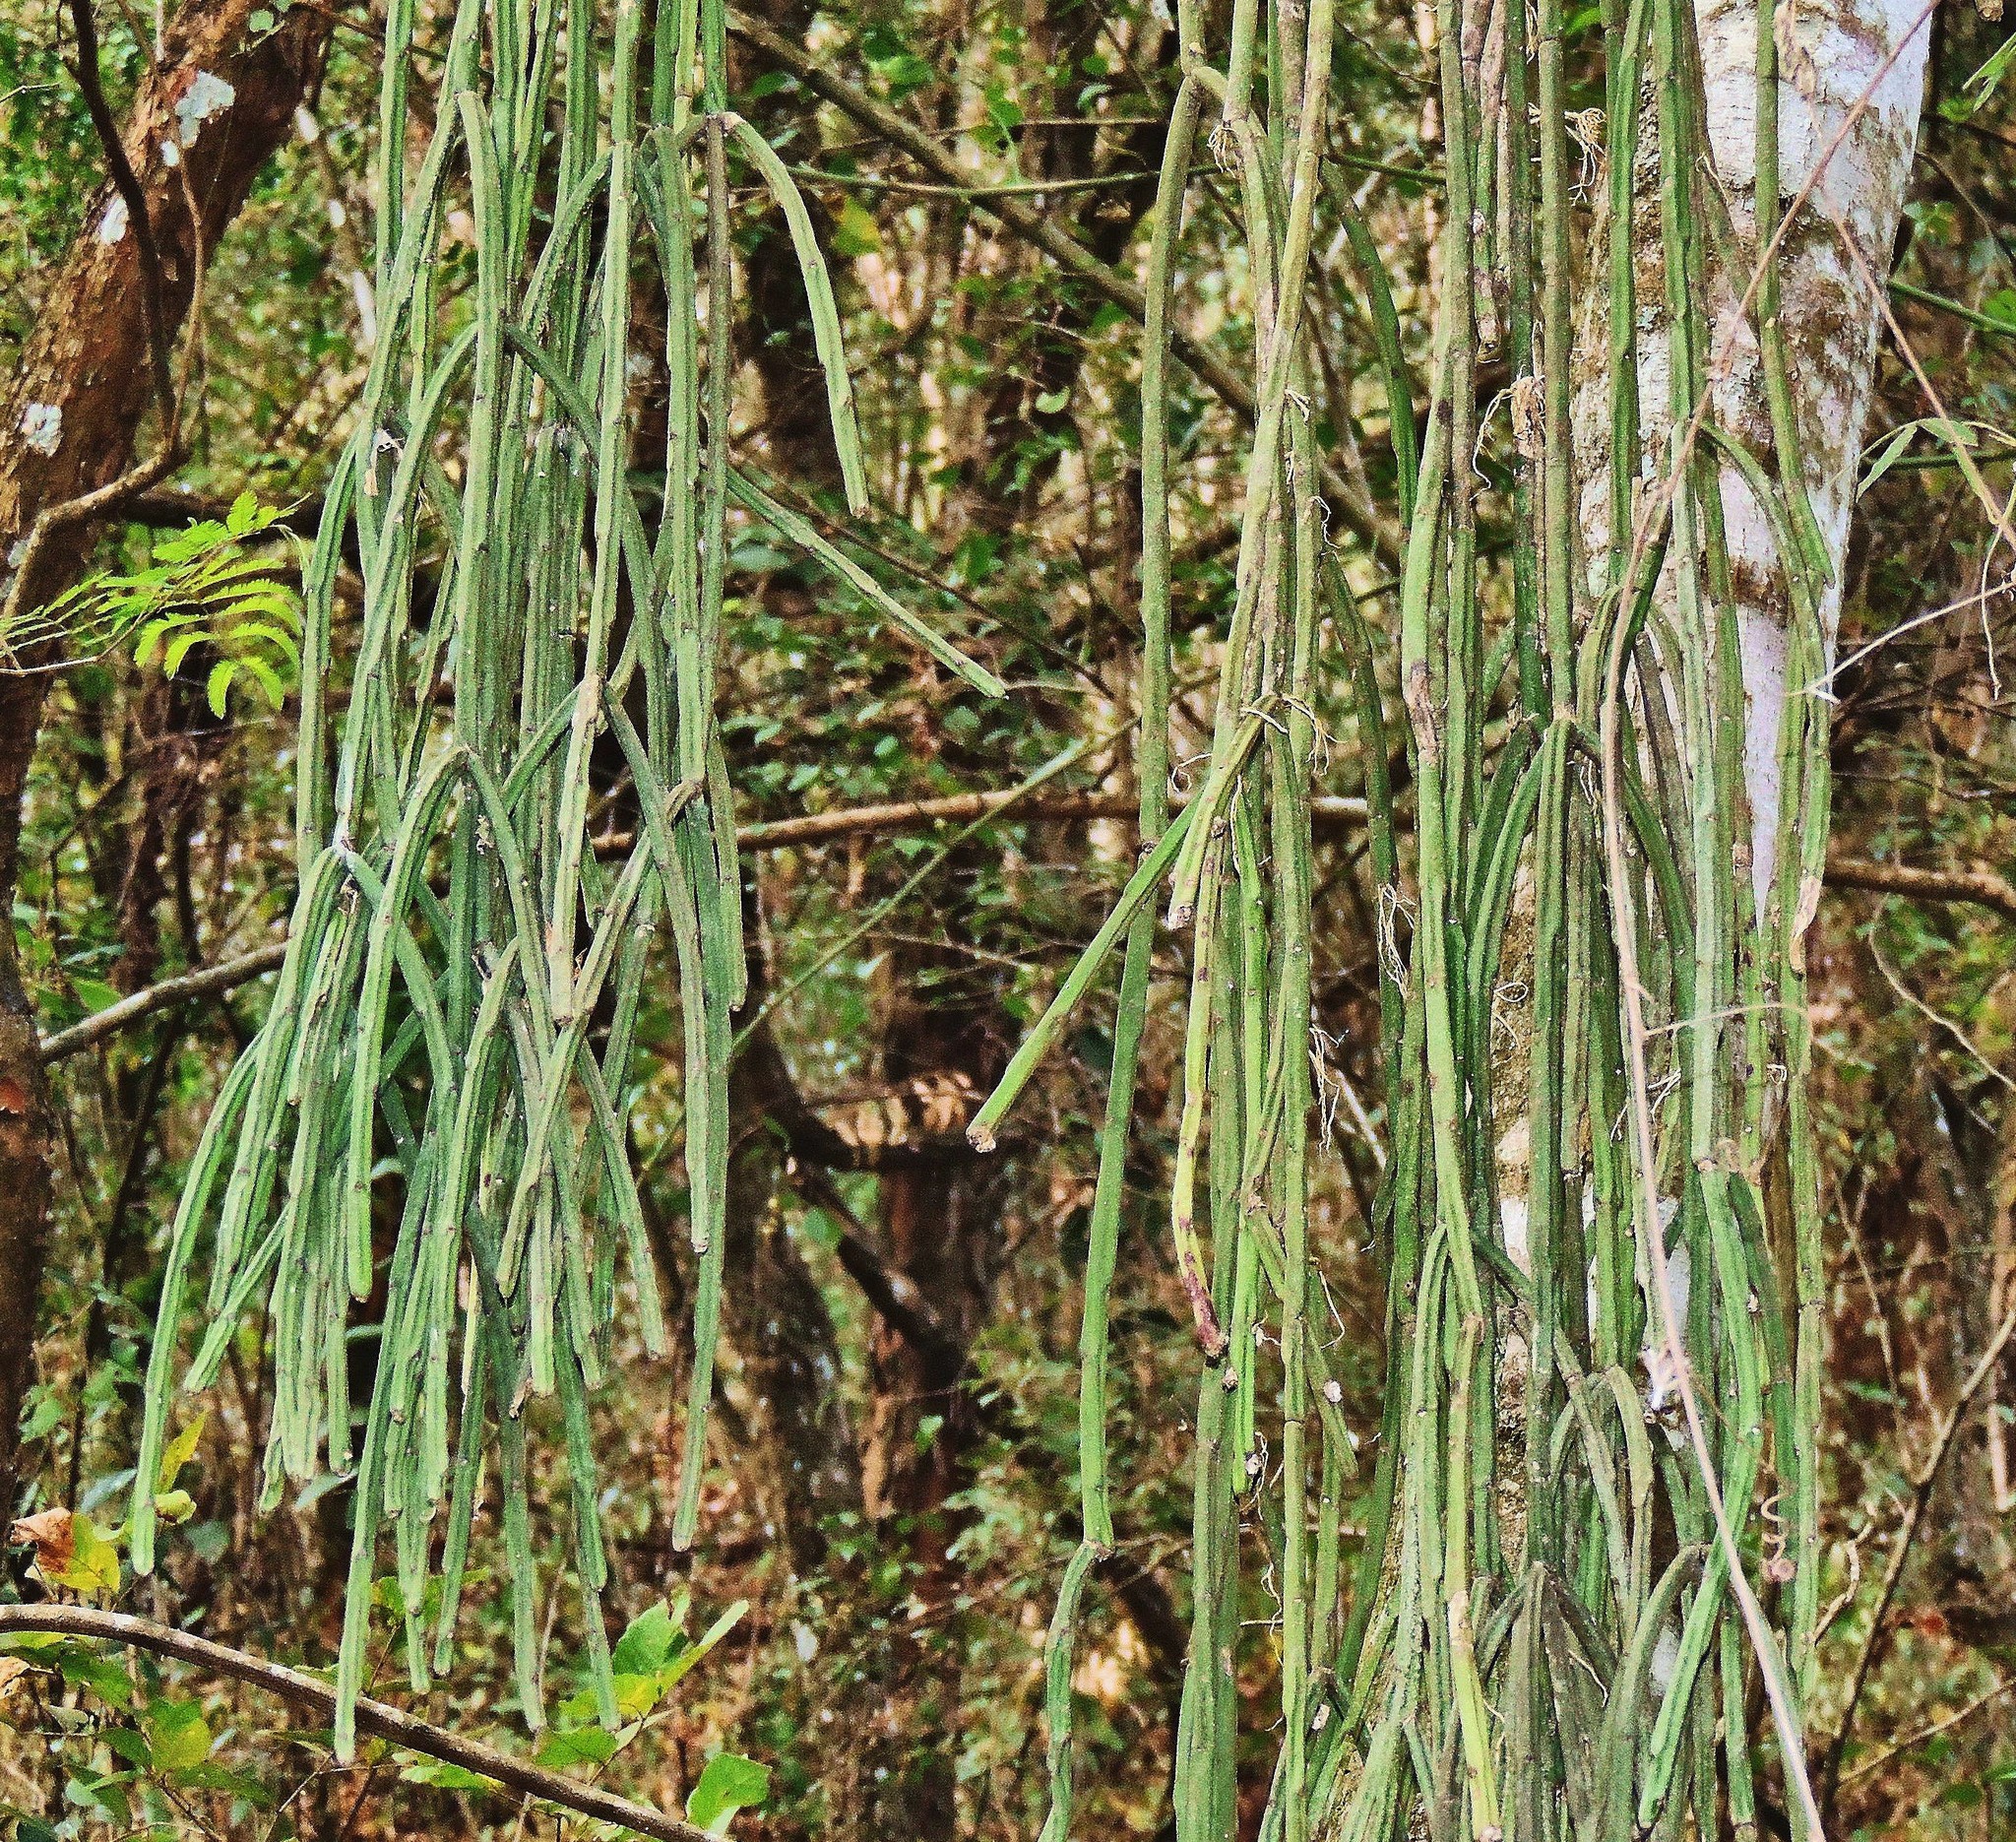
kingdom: Plantae
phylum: Tracheophyta
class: Magnoliopsida
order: Caryophyllales
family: Cactaceae
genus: Rhipsalis
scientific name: Rhipsalis floccosa
